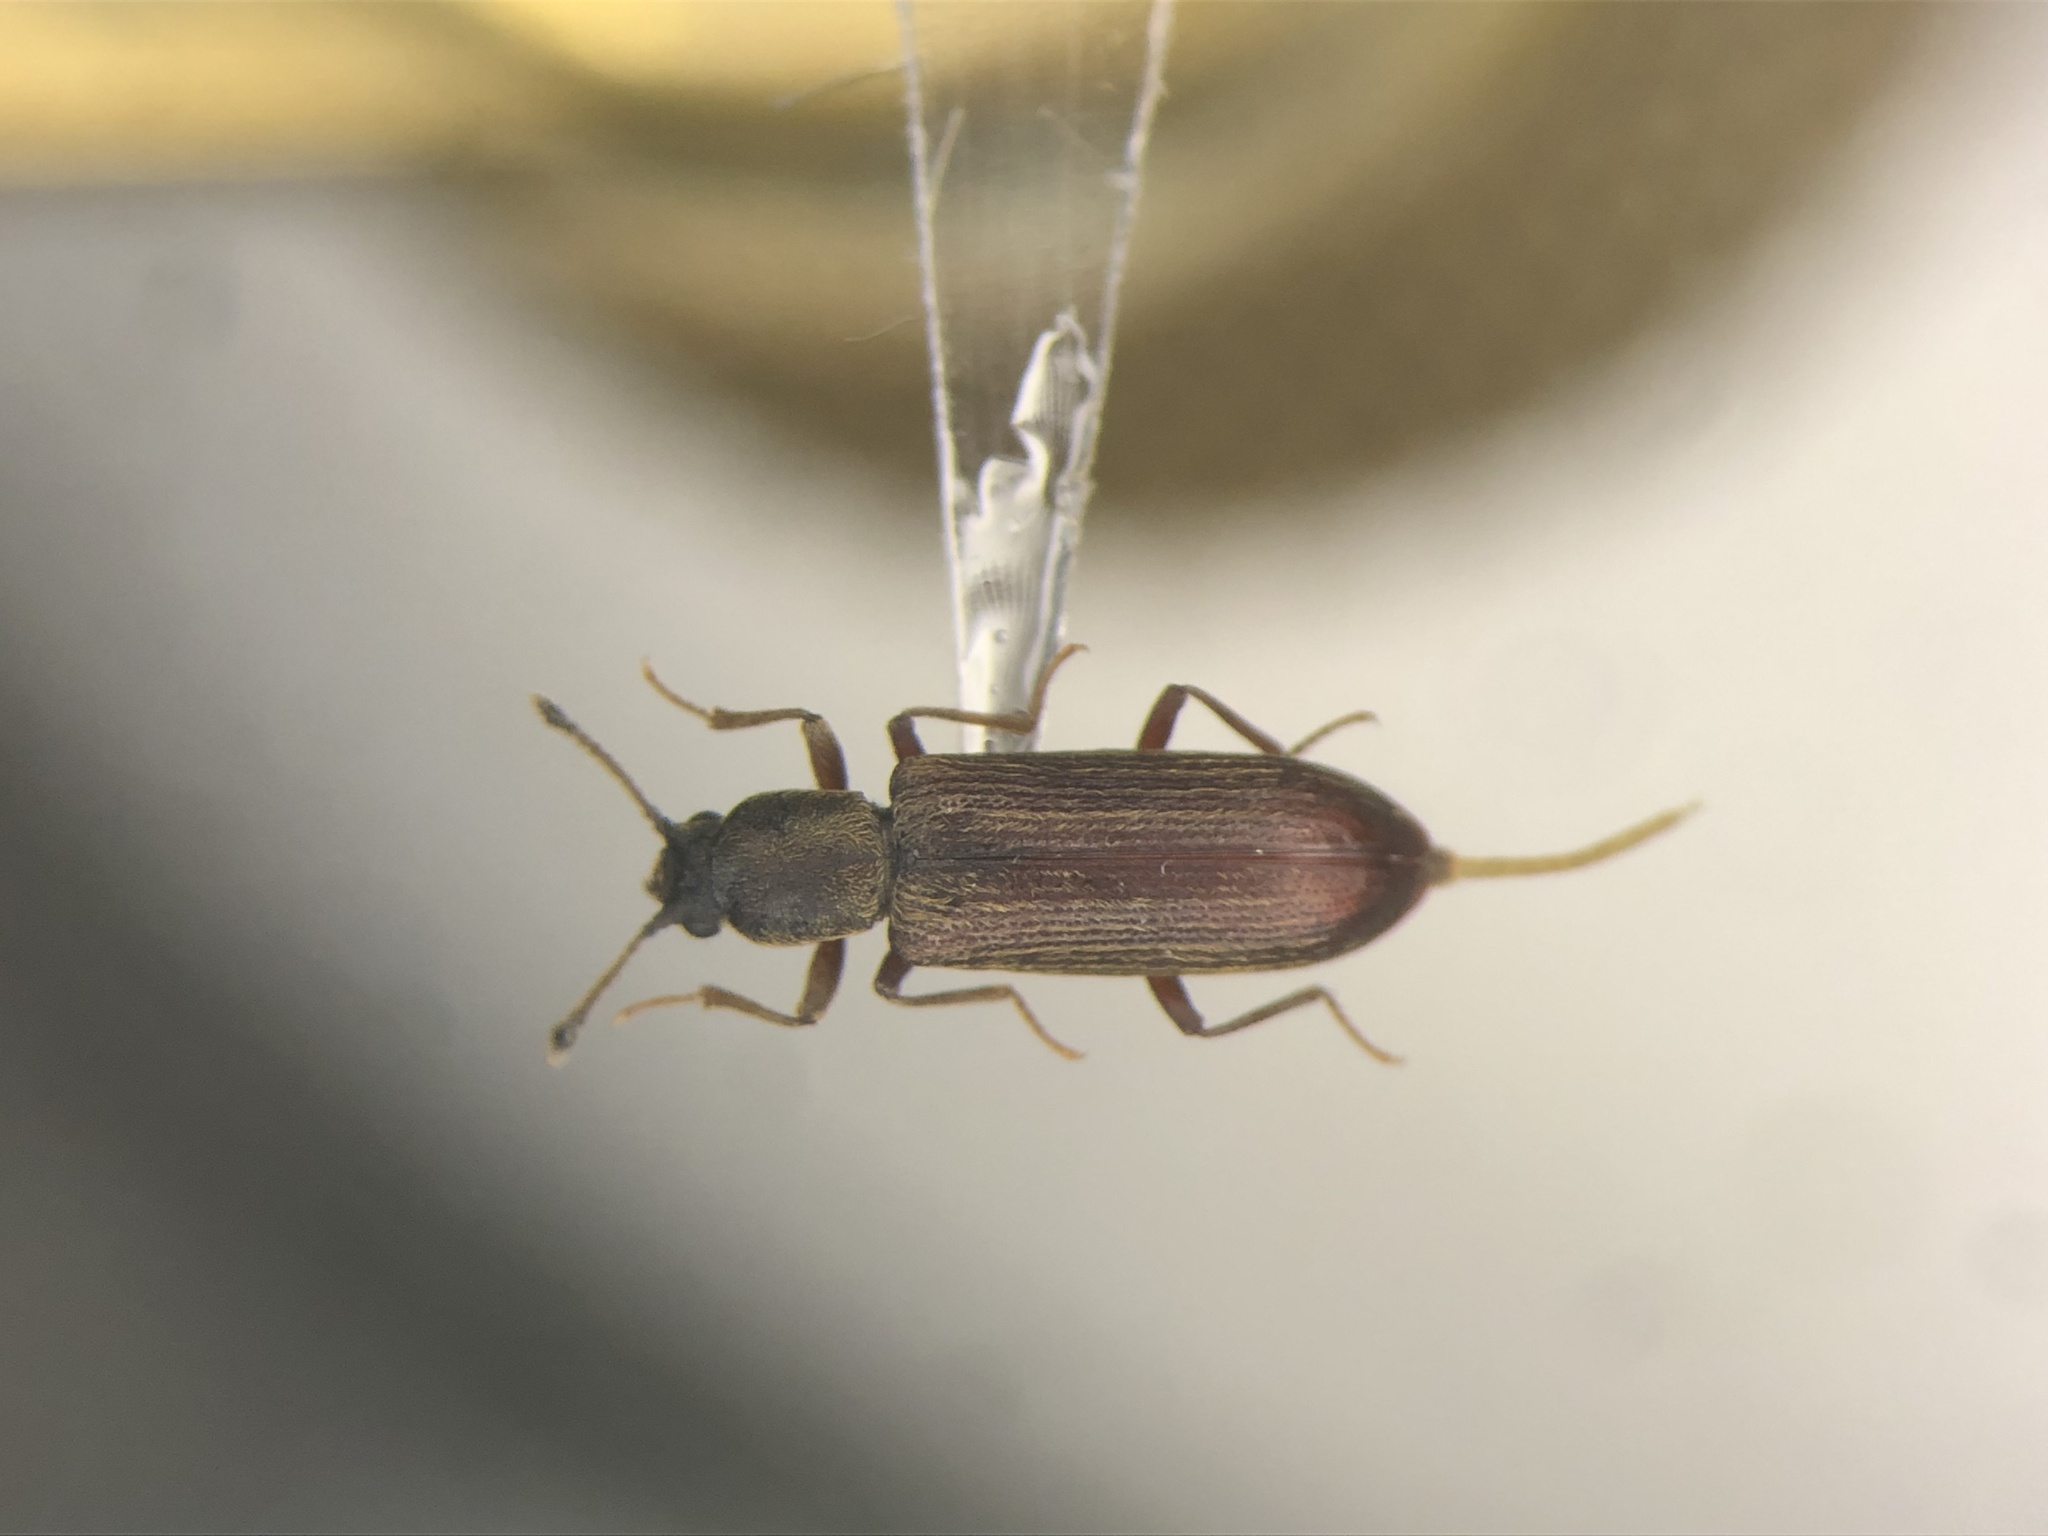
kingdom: Animalia
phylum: Arthropoda
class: Insecta
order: Coleoptera
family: Bostrichidae
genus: Lyctus
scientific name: Lyctus opaculus
